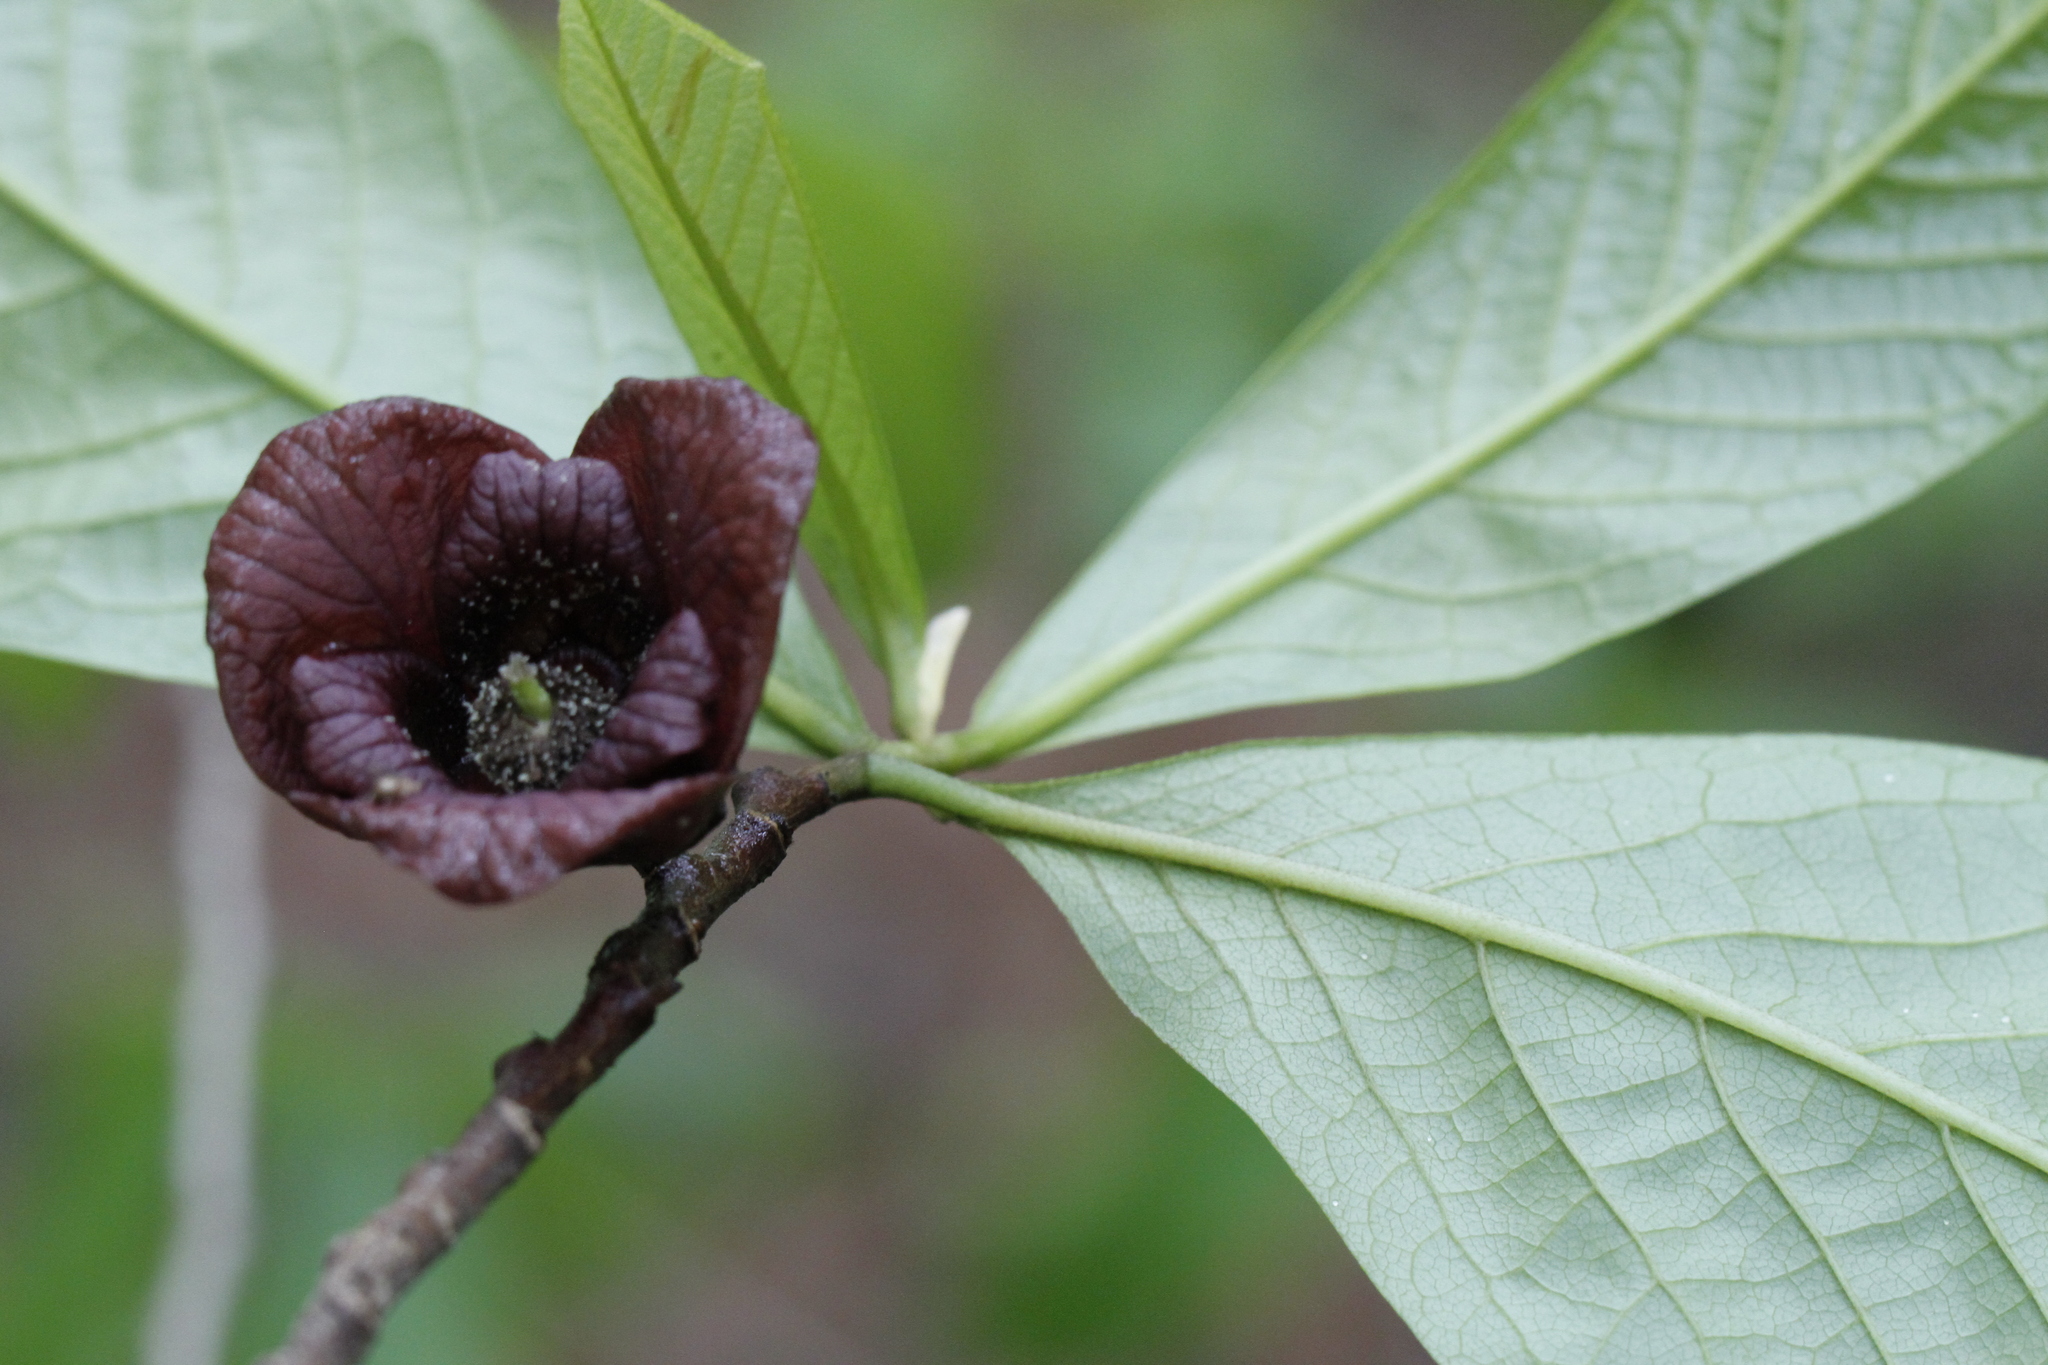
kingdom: Plantae
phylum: Tracheophyta
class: Magnoliopsida
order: Magnoliales
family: Annonaceae
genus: Asimina
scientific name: Asimina triloba
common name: Dog-banana
